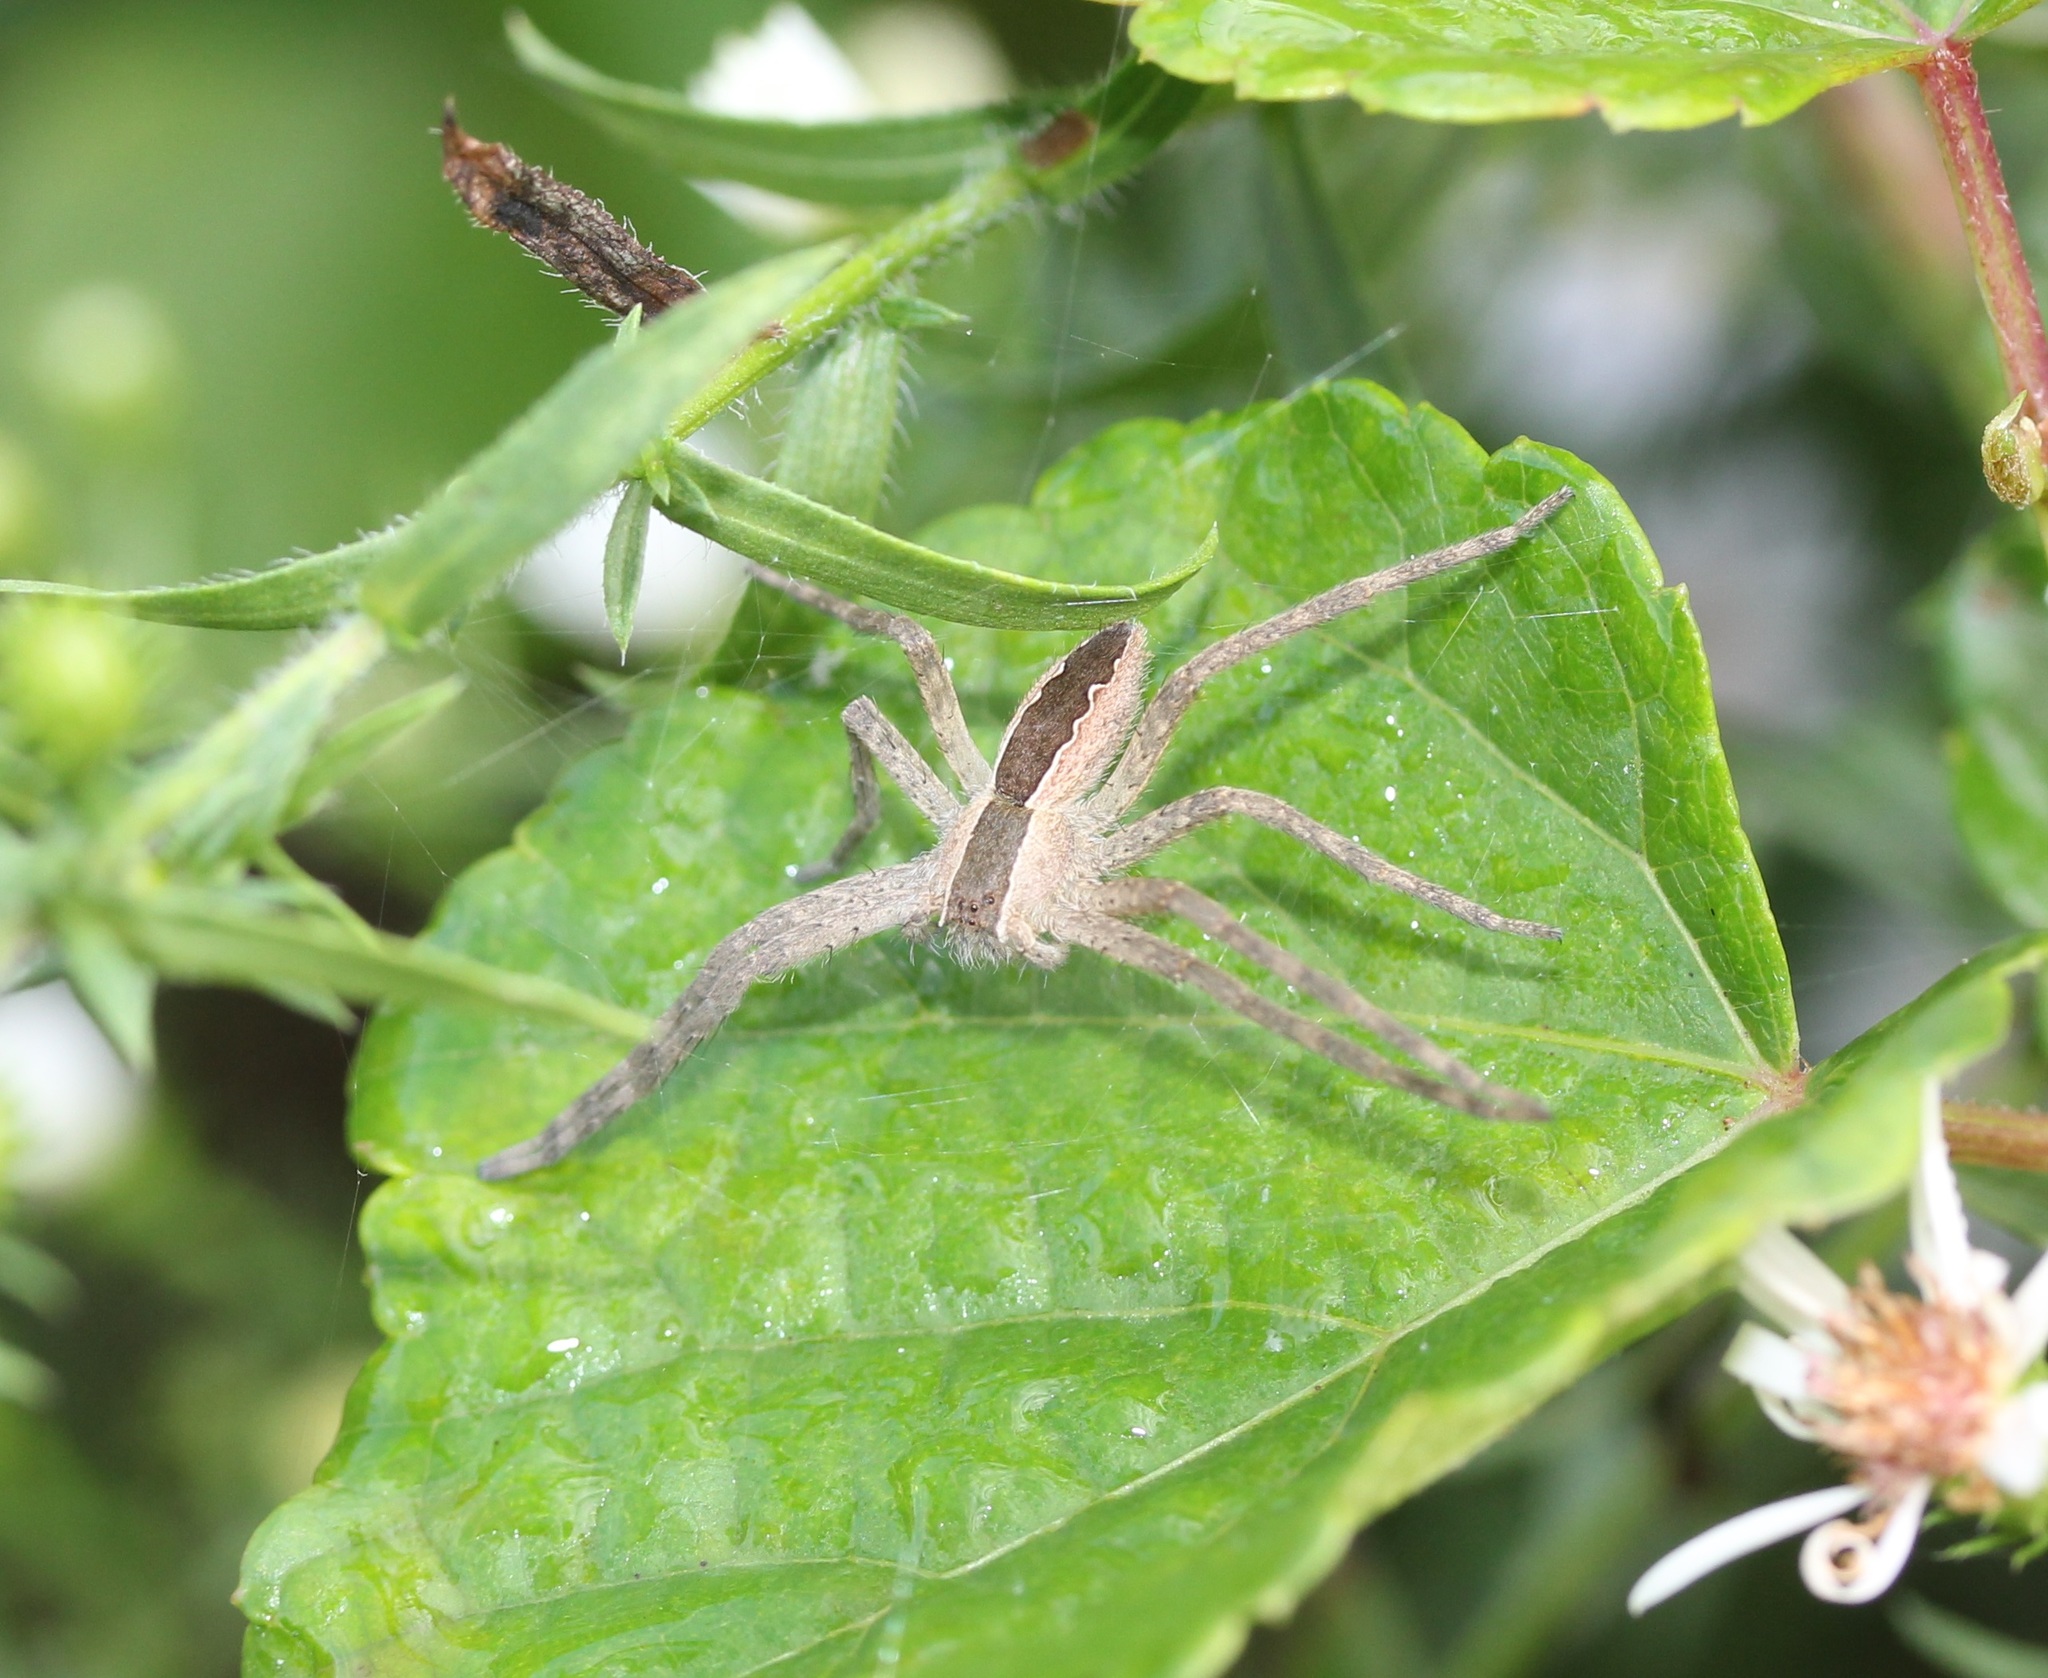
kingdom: Animalia
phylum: Arthropoda
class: Arachnida
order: Araneae
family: Pisauridae
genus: Pisaurina
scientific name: Pisaurina mira
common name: American nursery web spider
